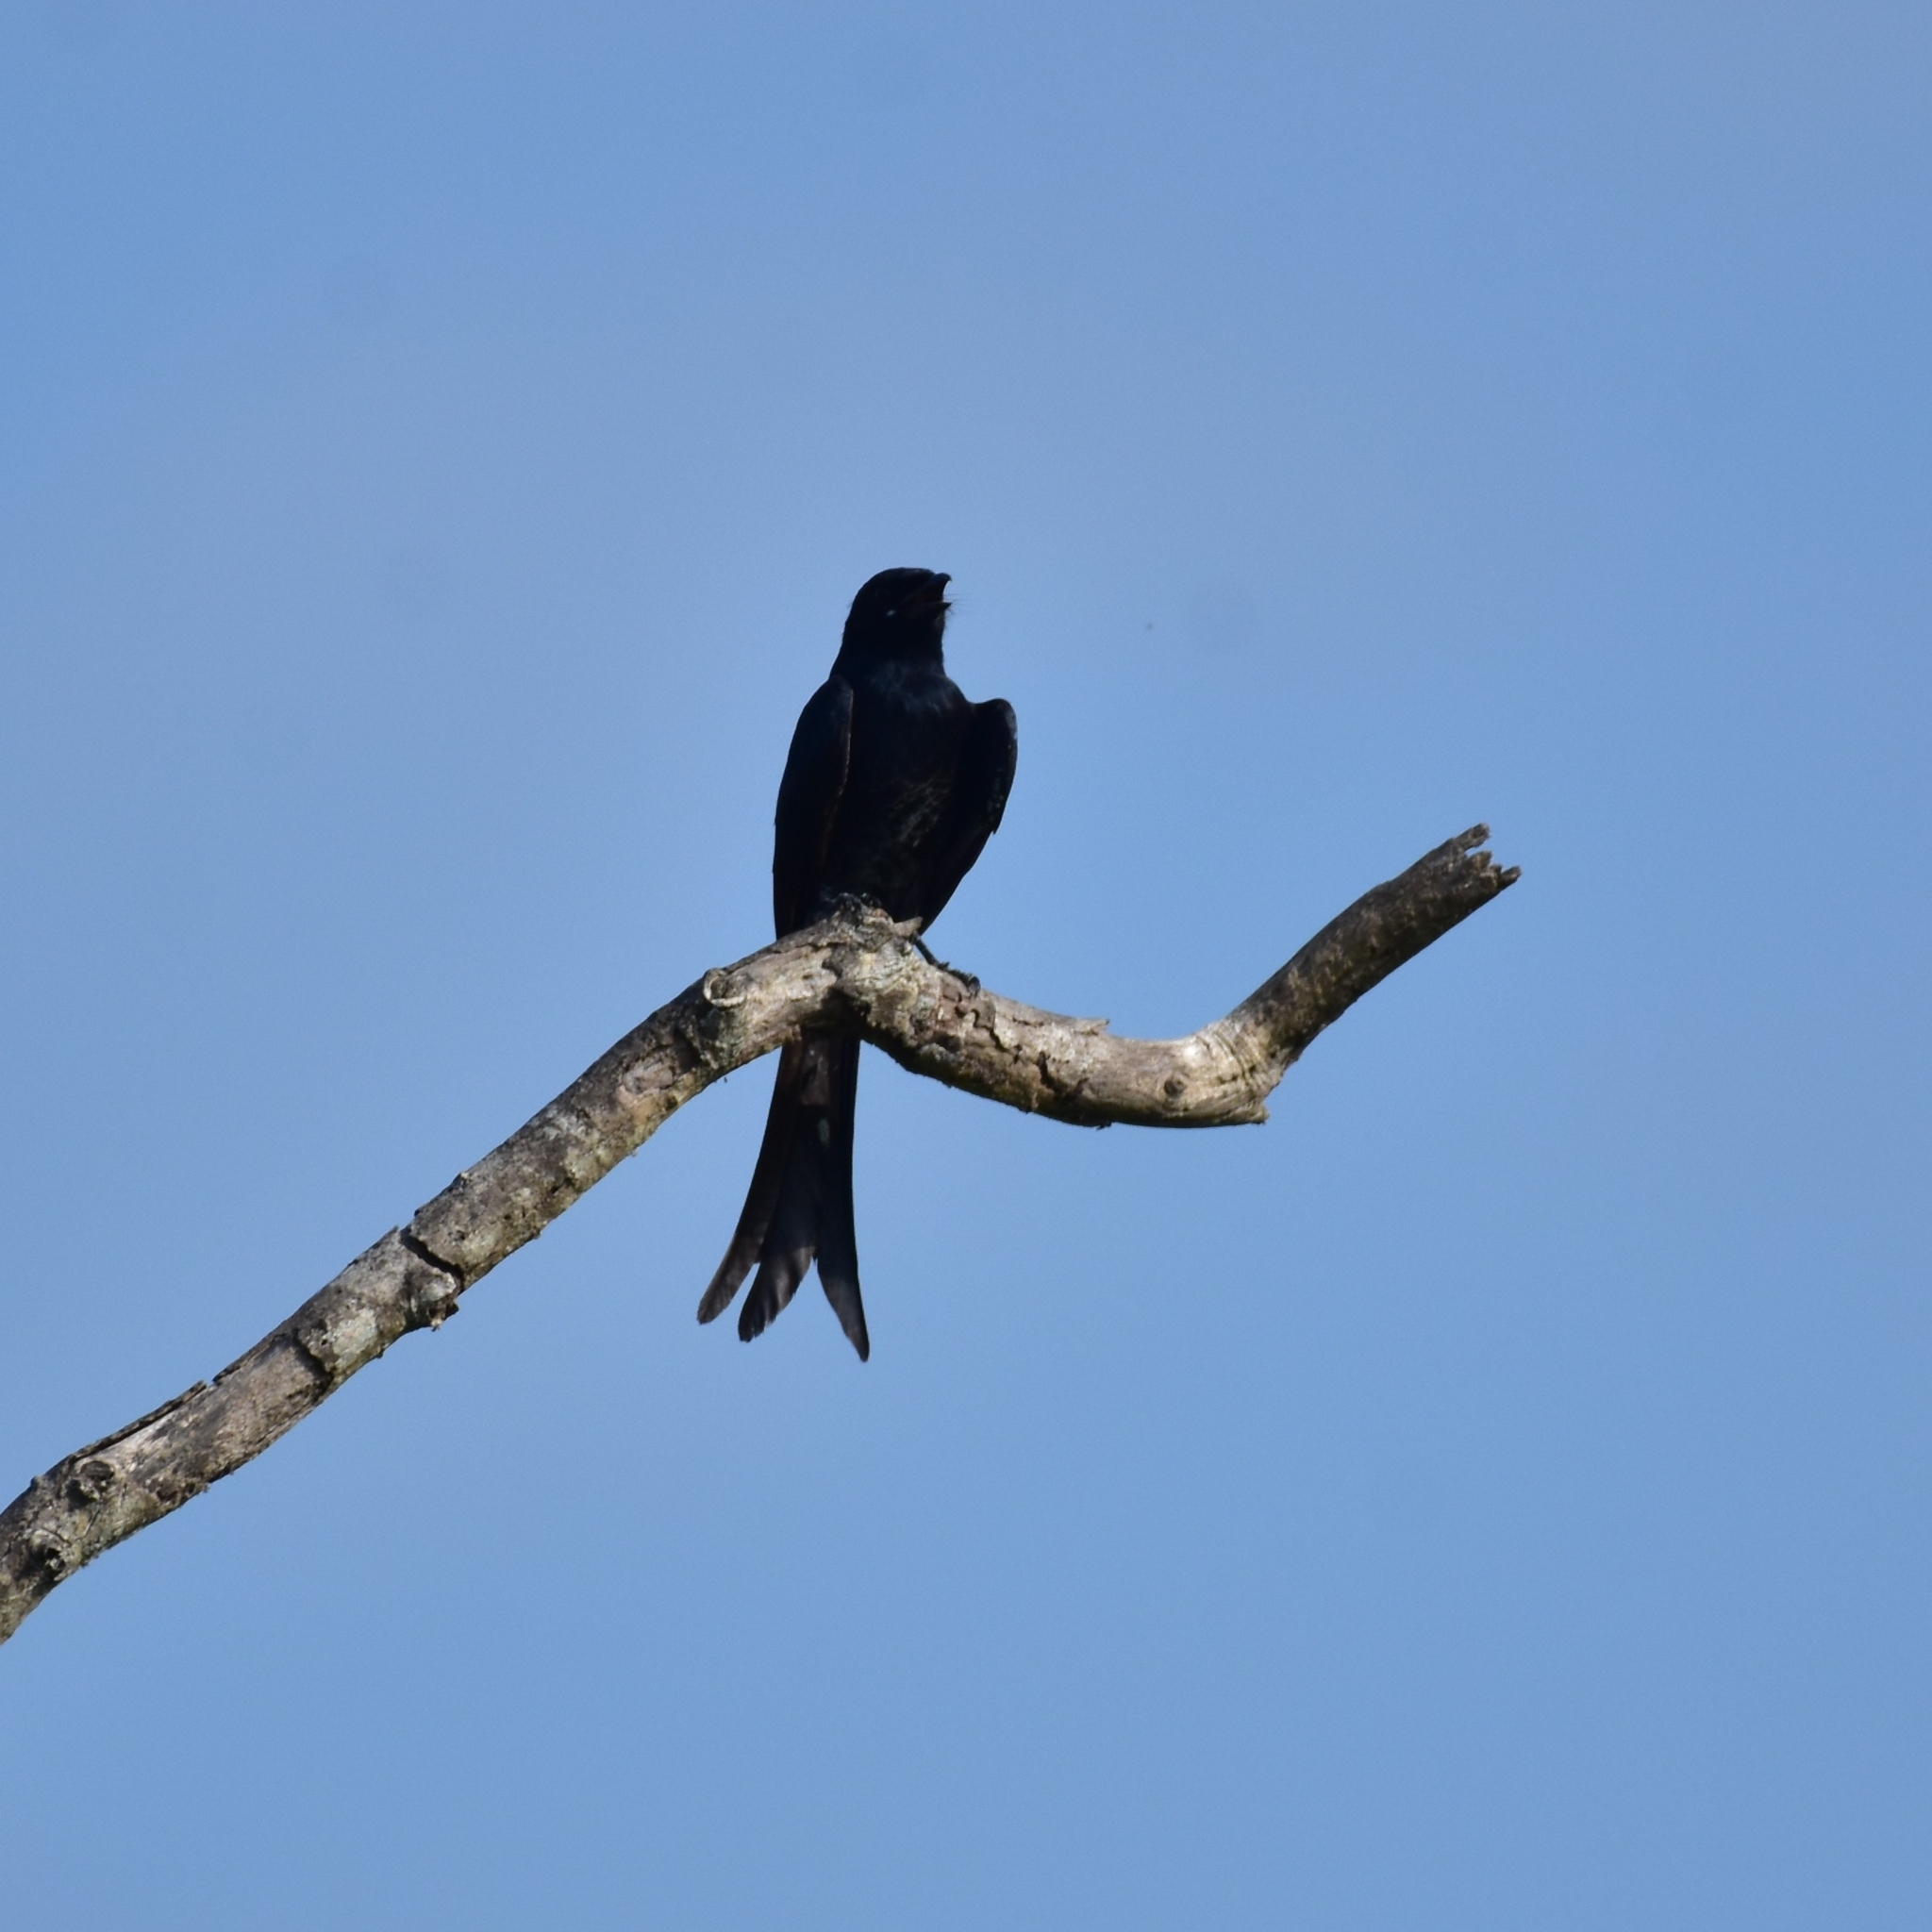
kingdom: Animalia
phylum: Chordata
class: Aves
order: Passeriformes
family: Dicruridae
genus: Dicrurus
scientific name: Dicrurus macrocercus
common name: Black drongo
